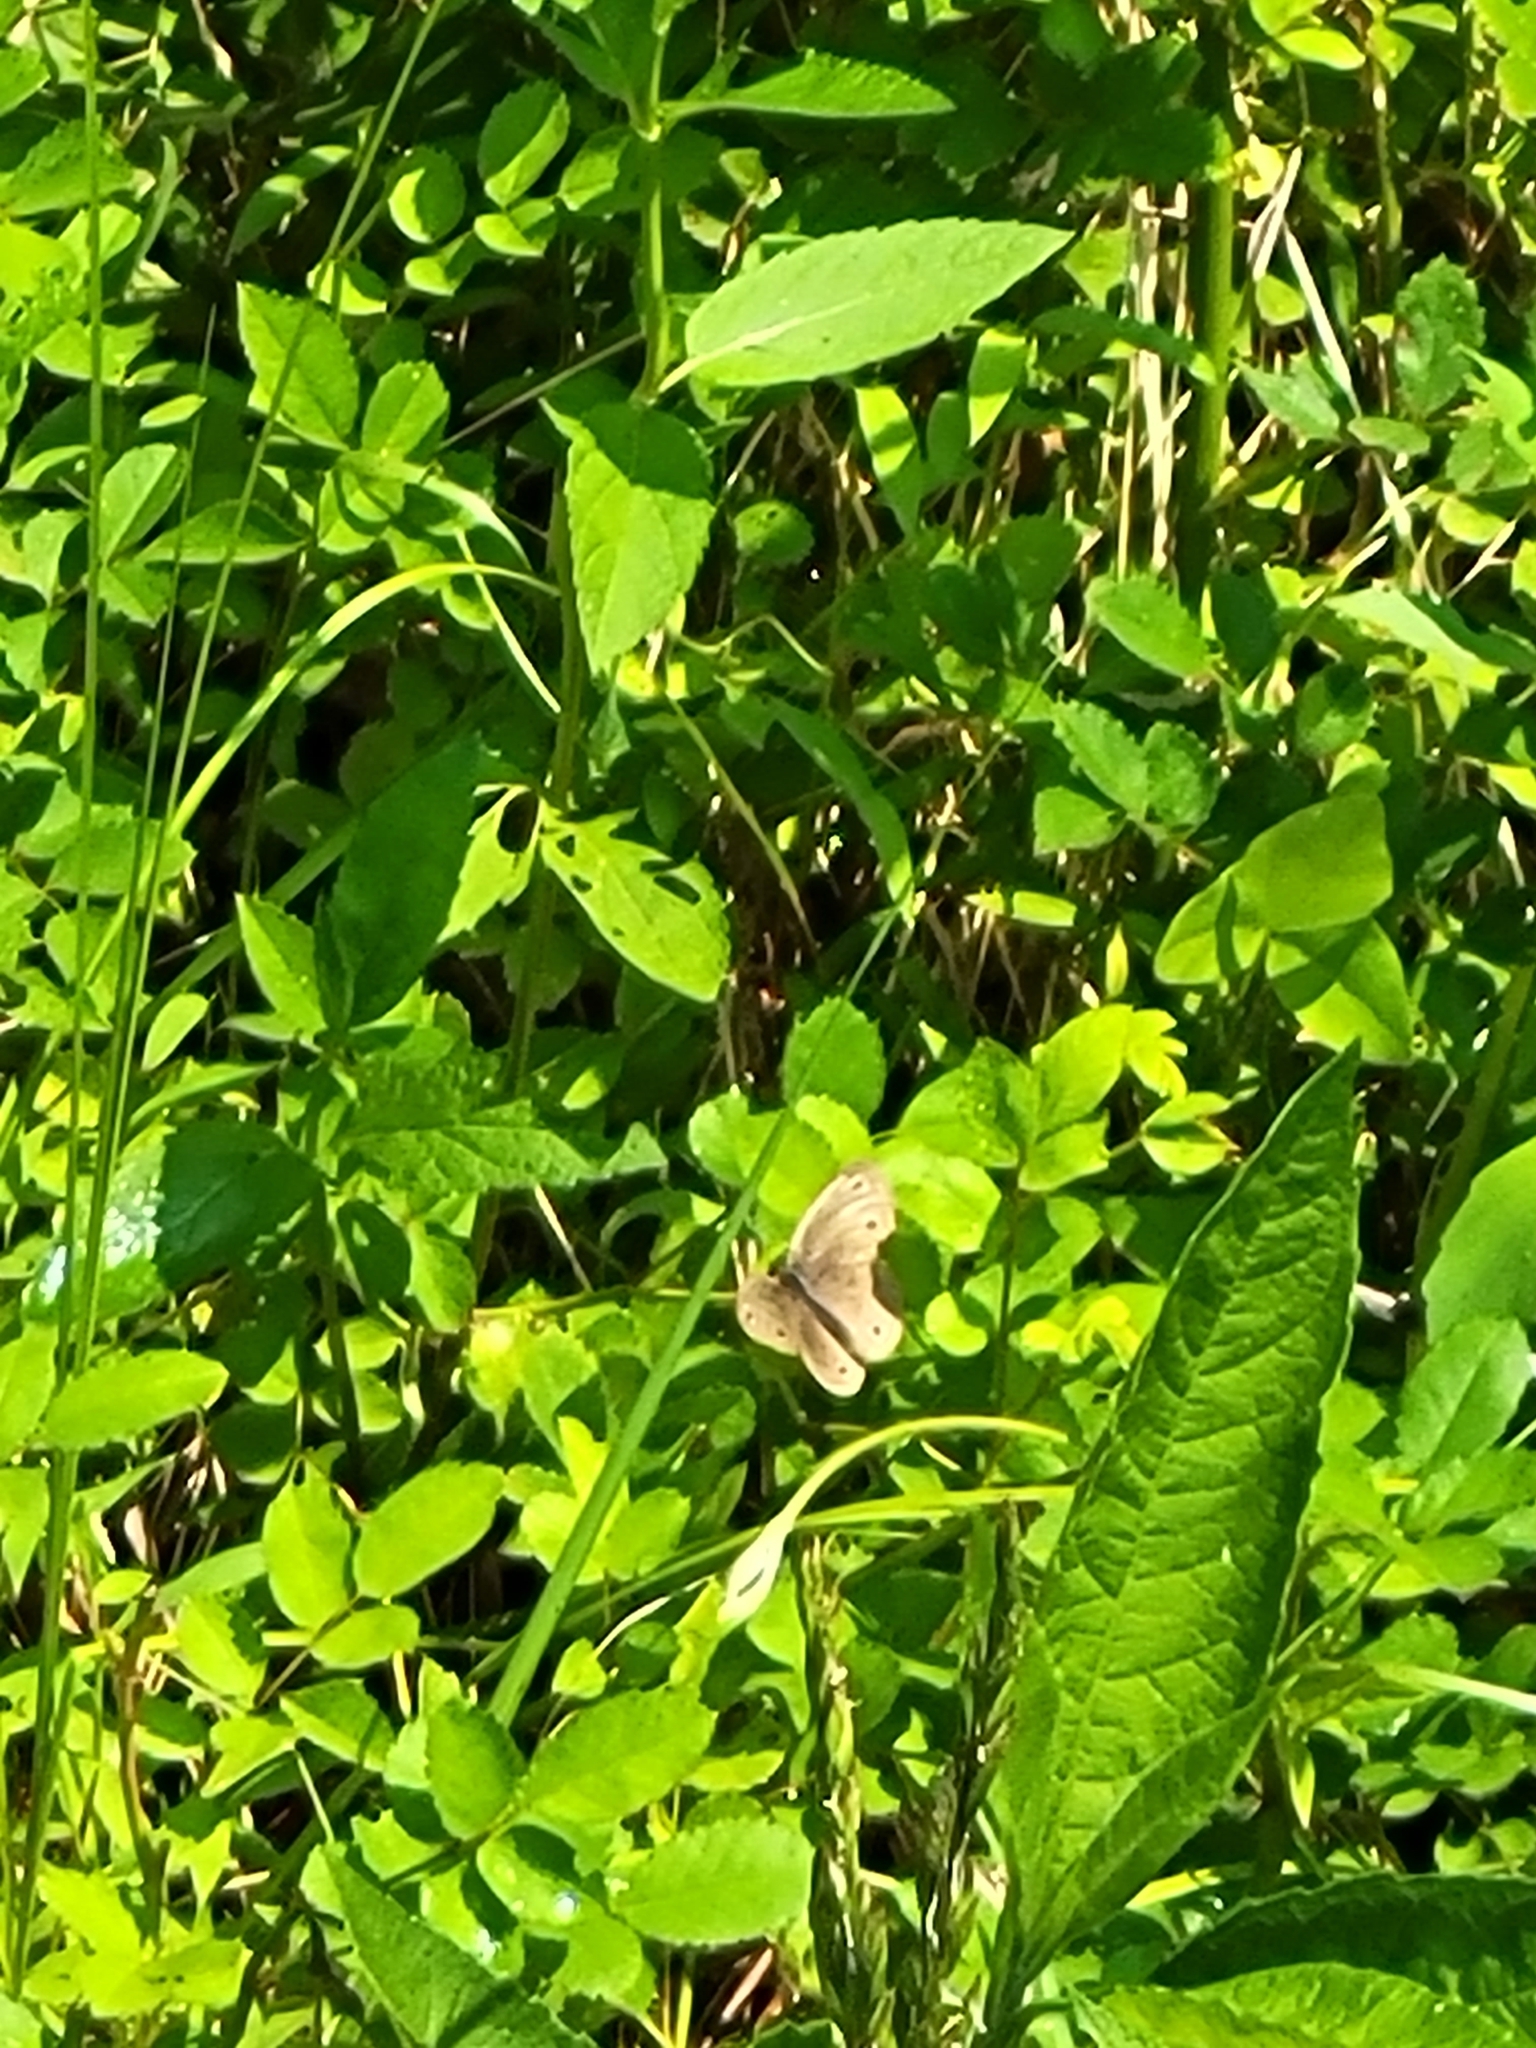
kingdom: Animalia
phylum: Arthropoda
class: Insecta
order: Lepidoptera
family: Nymphalidae
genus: Euptychia
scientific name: Euptychia cymela
